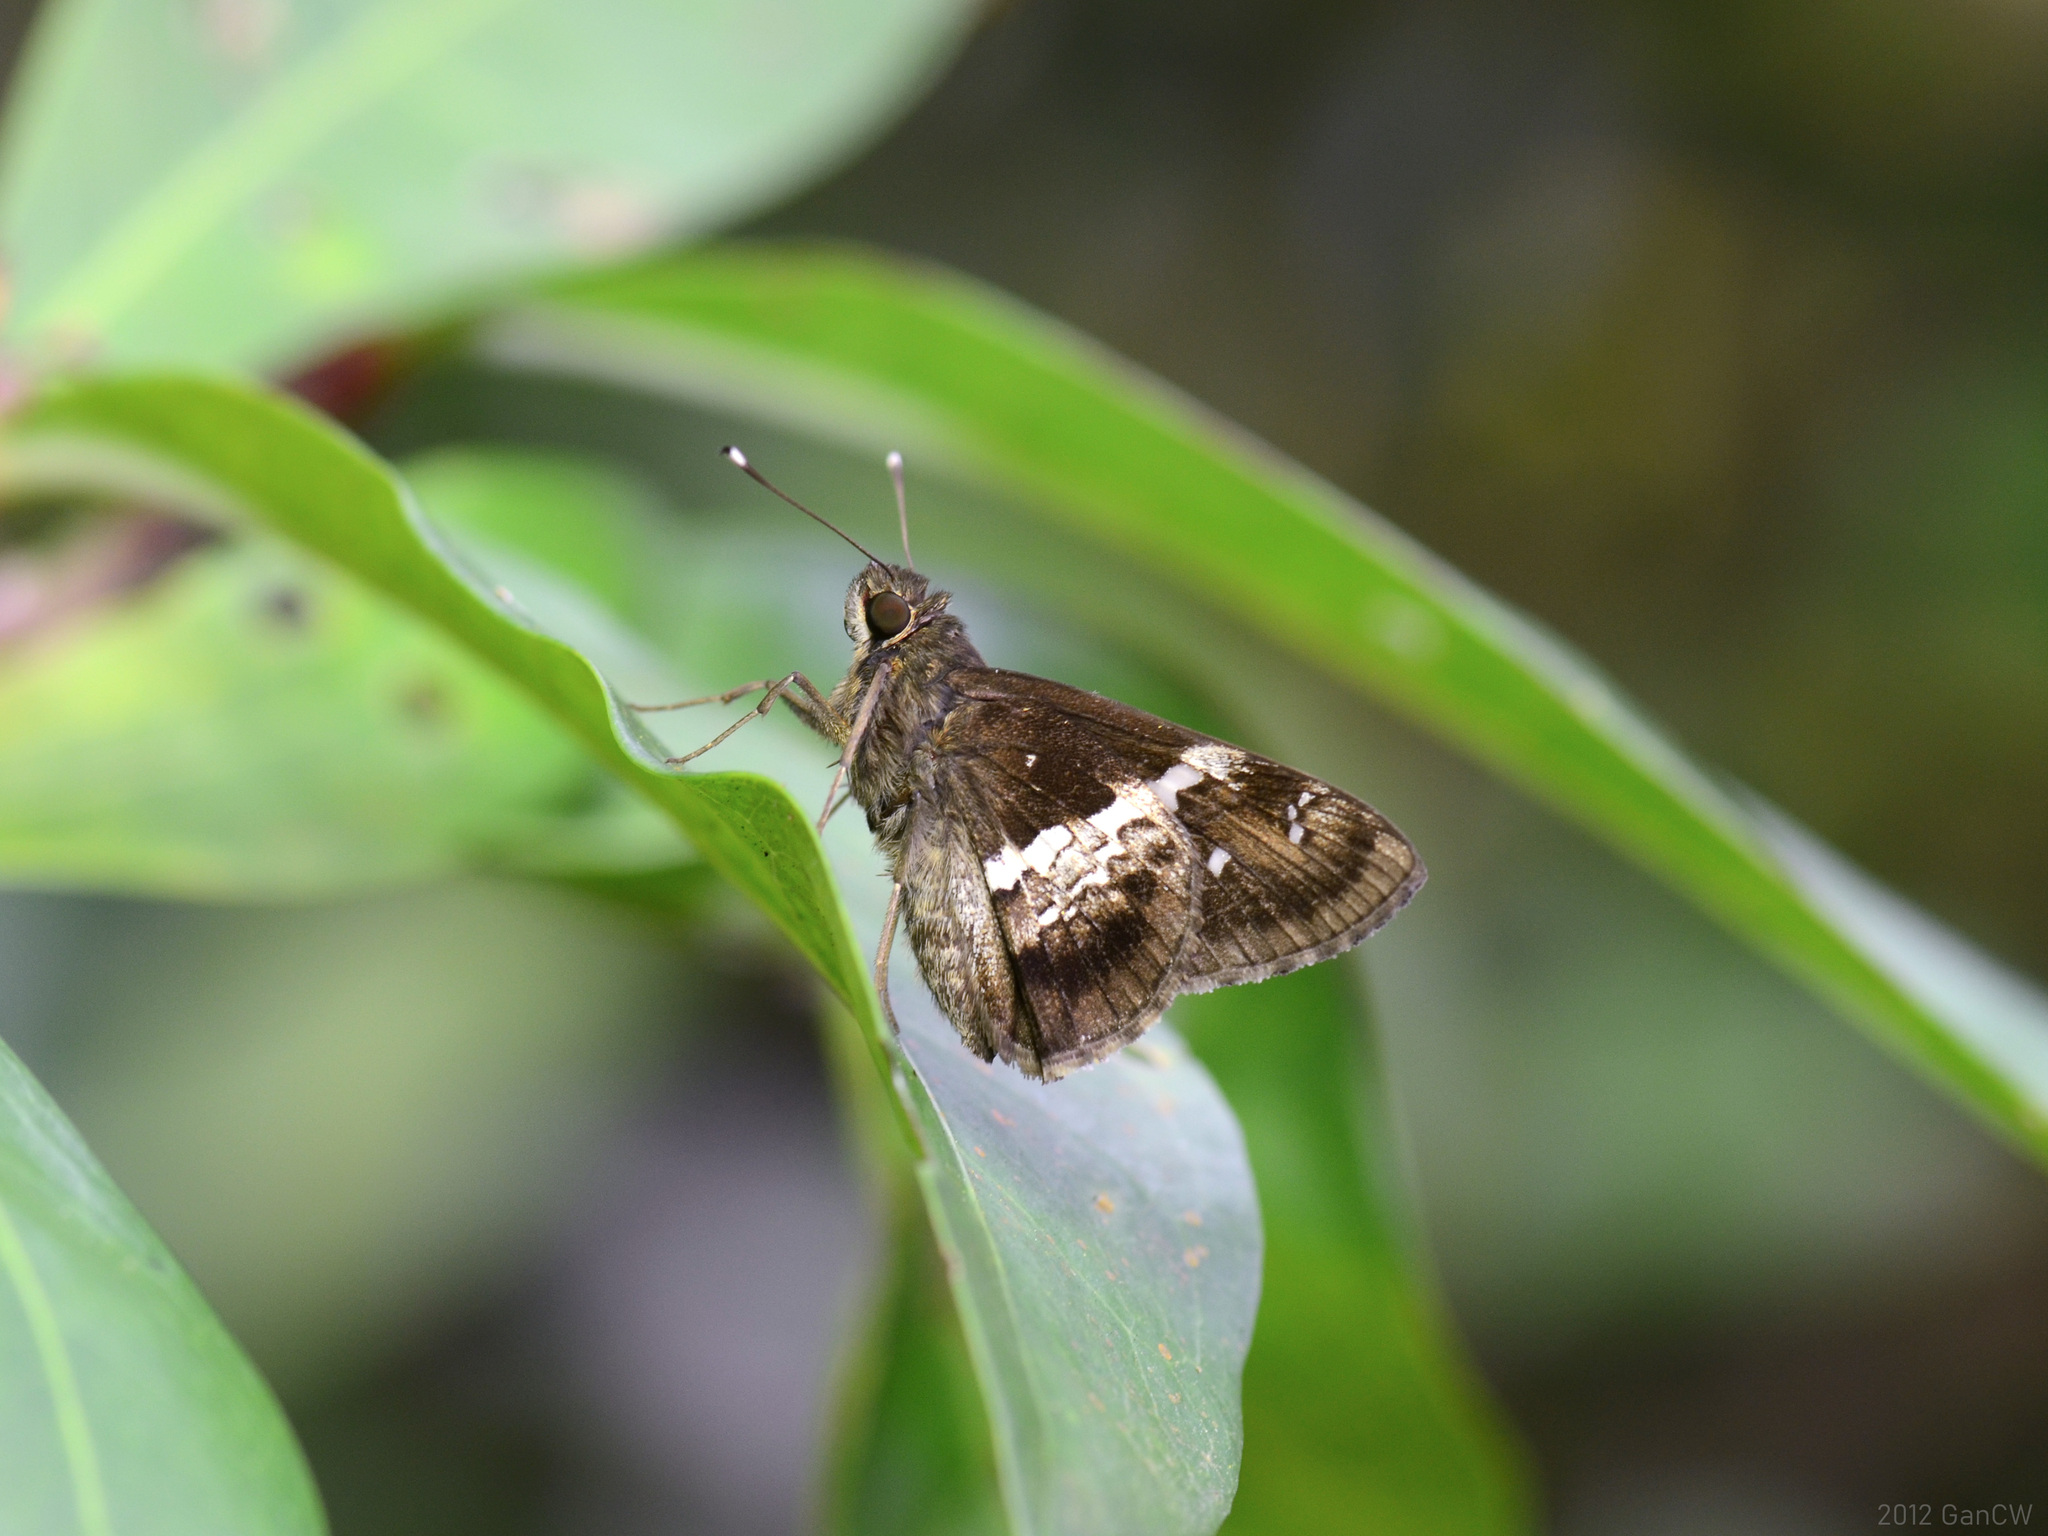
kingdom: Animalia
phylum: Arthropoda
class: Insecta
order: Lepidoptera
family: Hesperiidae
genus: Hyarotis
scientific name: Hyarotis adrastus
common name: Tree flitter
